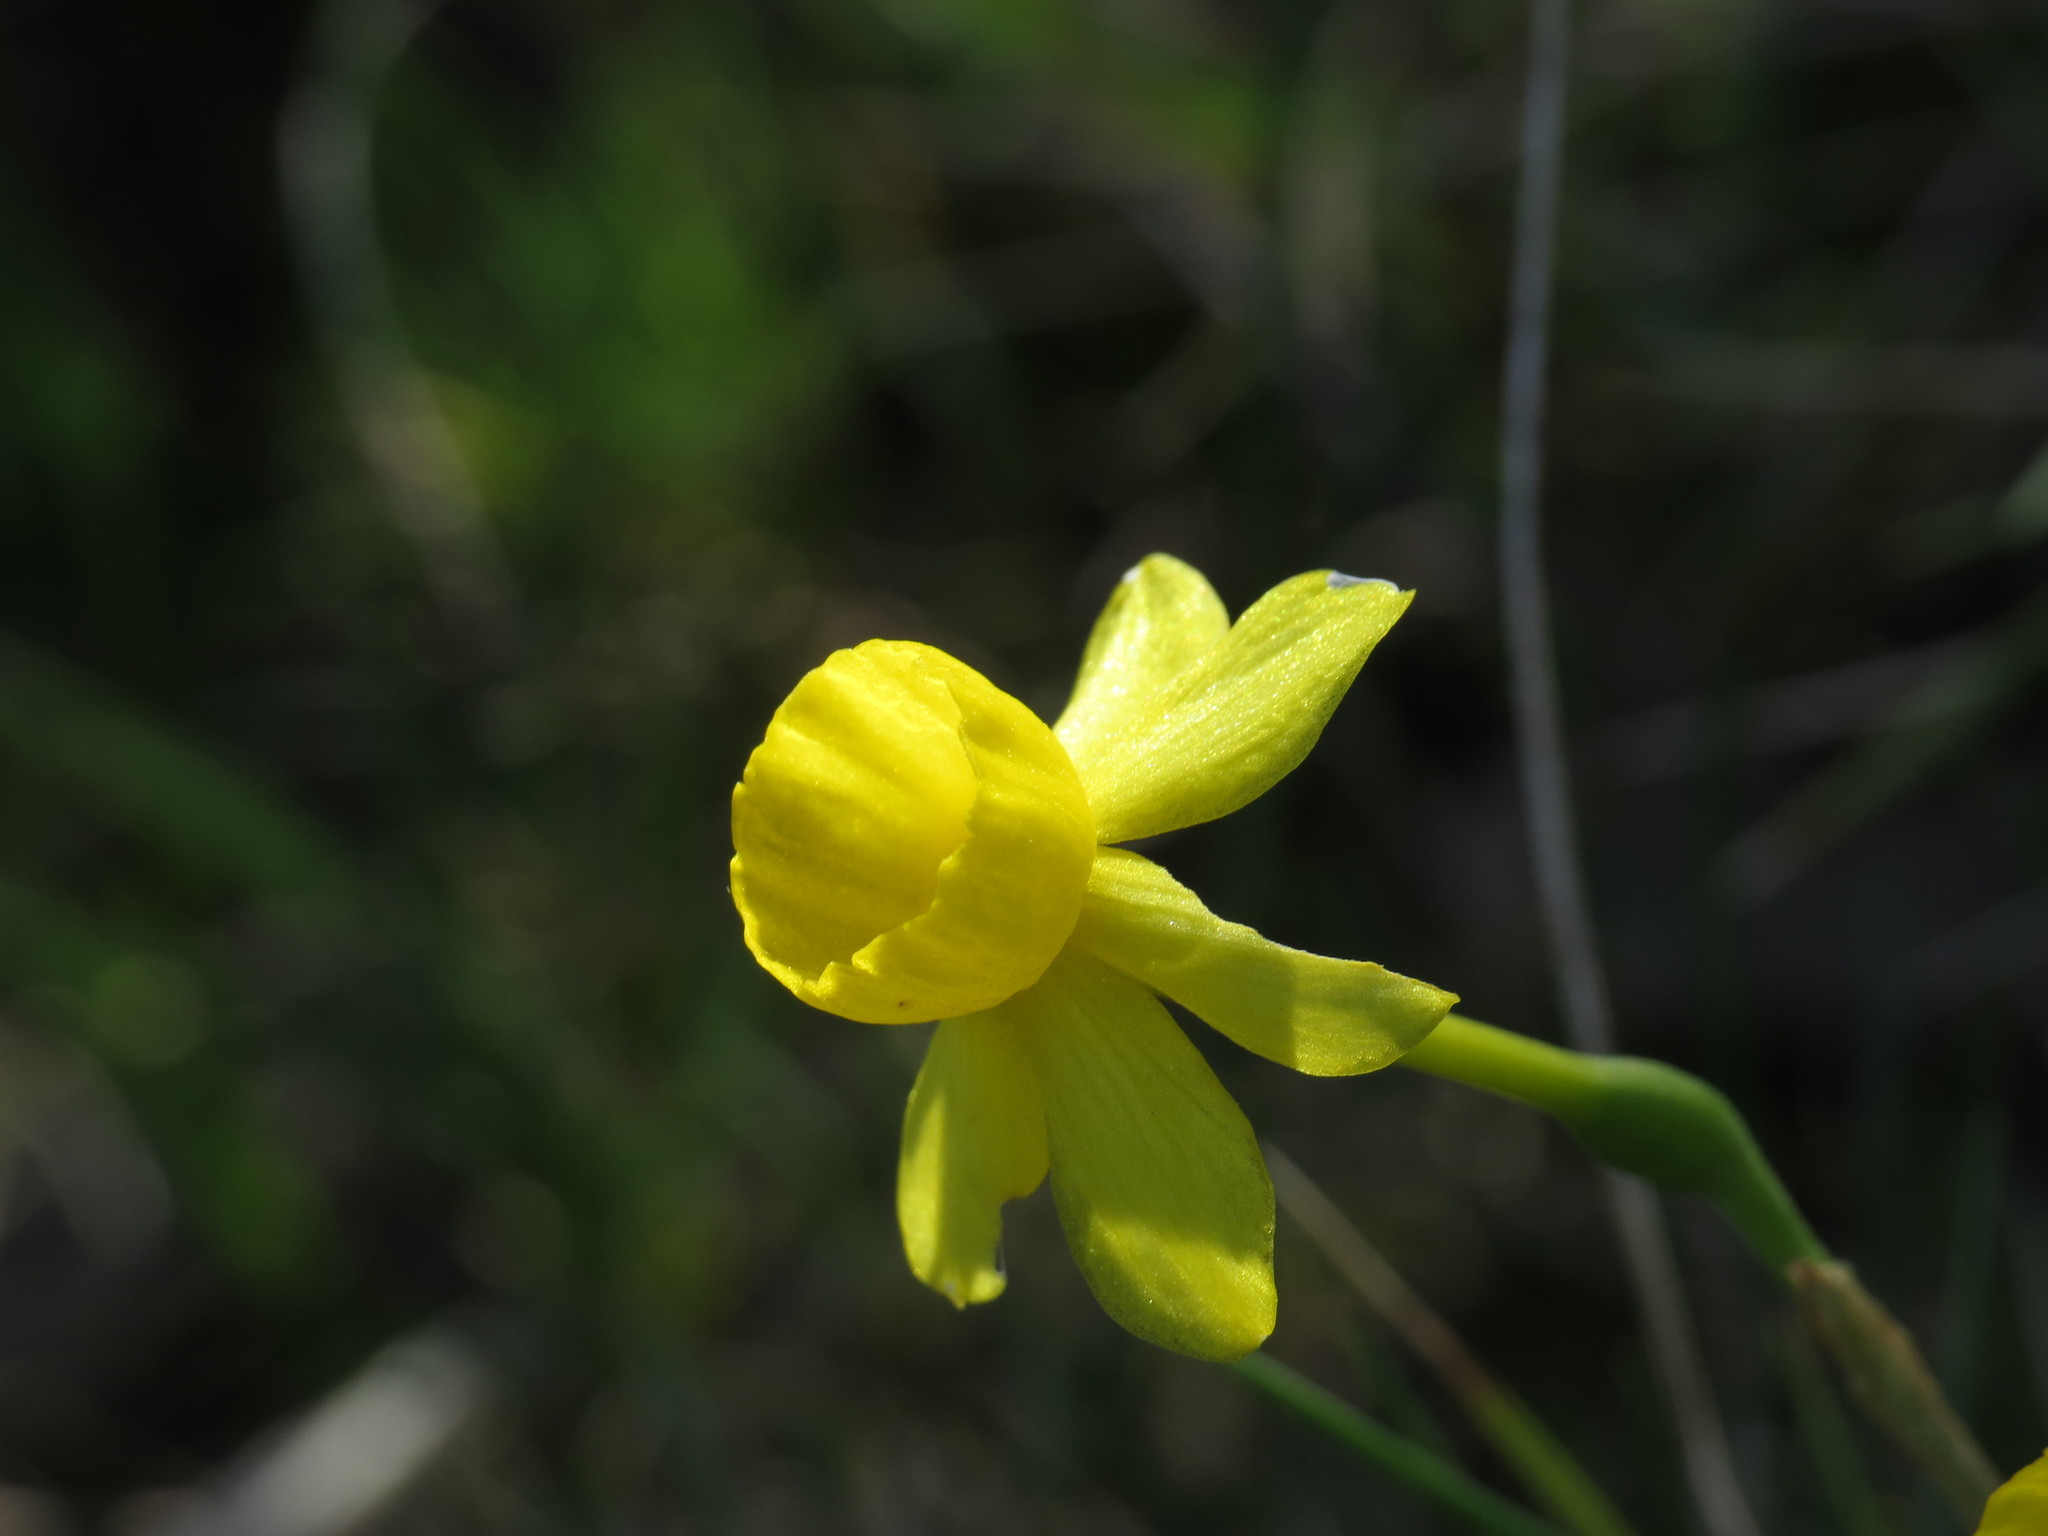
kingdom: Plantae
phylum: Tracheophyta
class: Liliopsida
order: Asparagales
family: Amaryllidaceae
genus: Narcissus
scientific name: Narcissus assoanus
